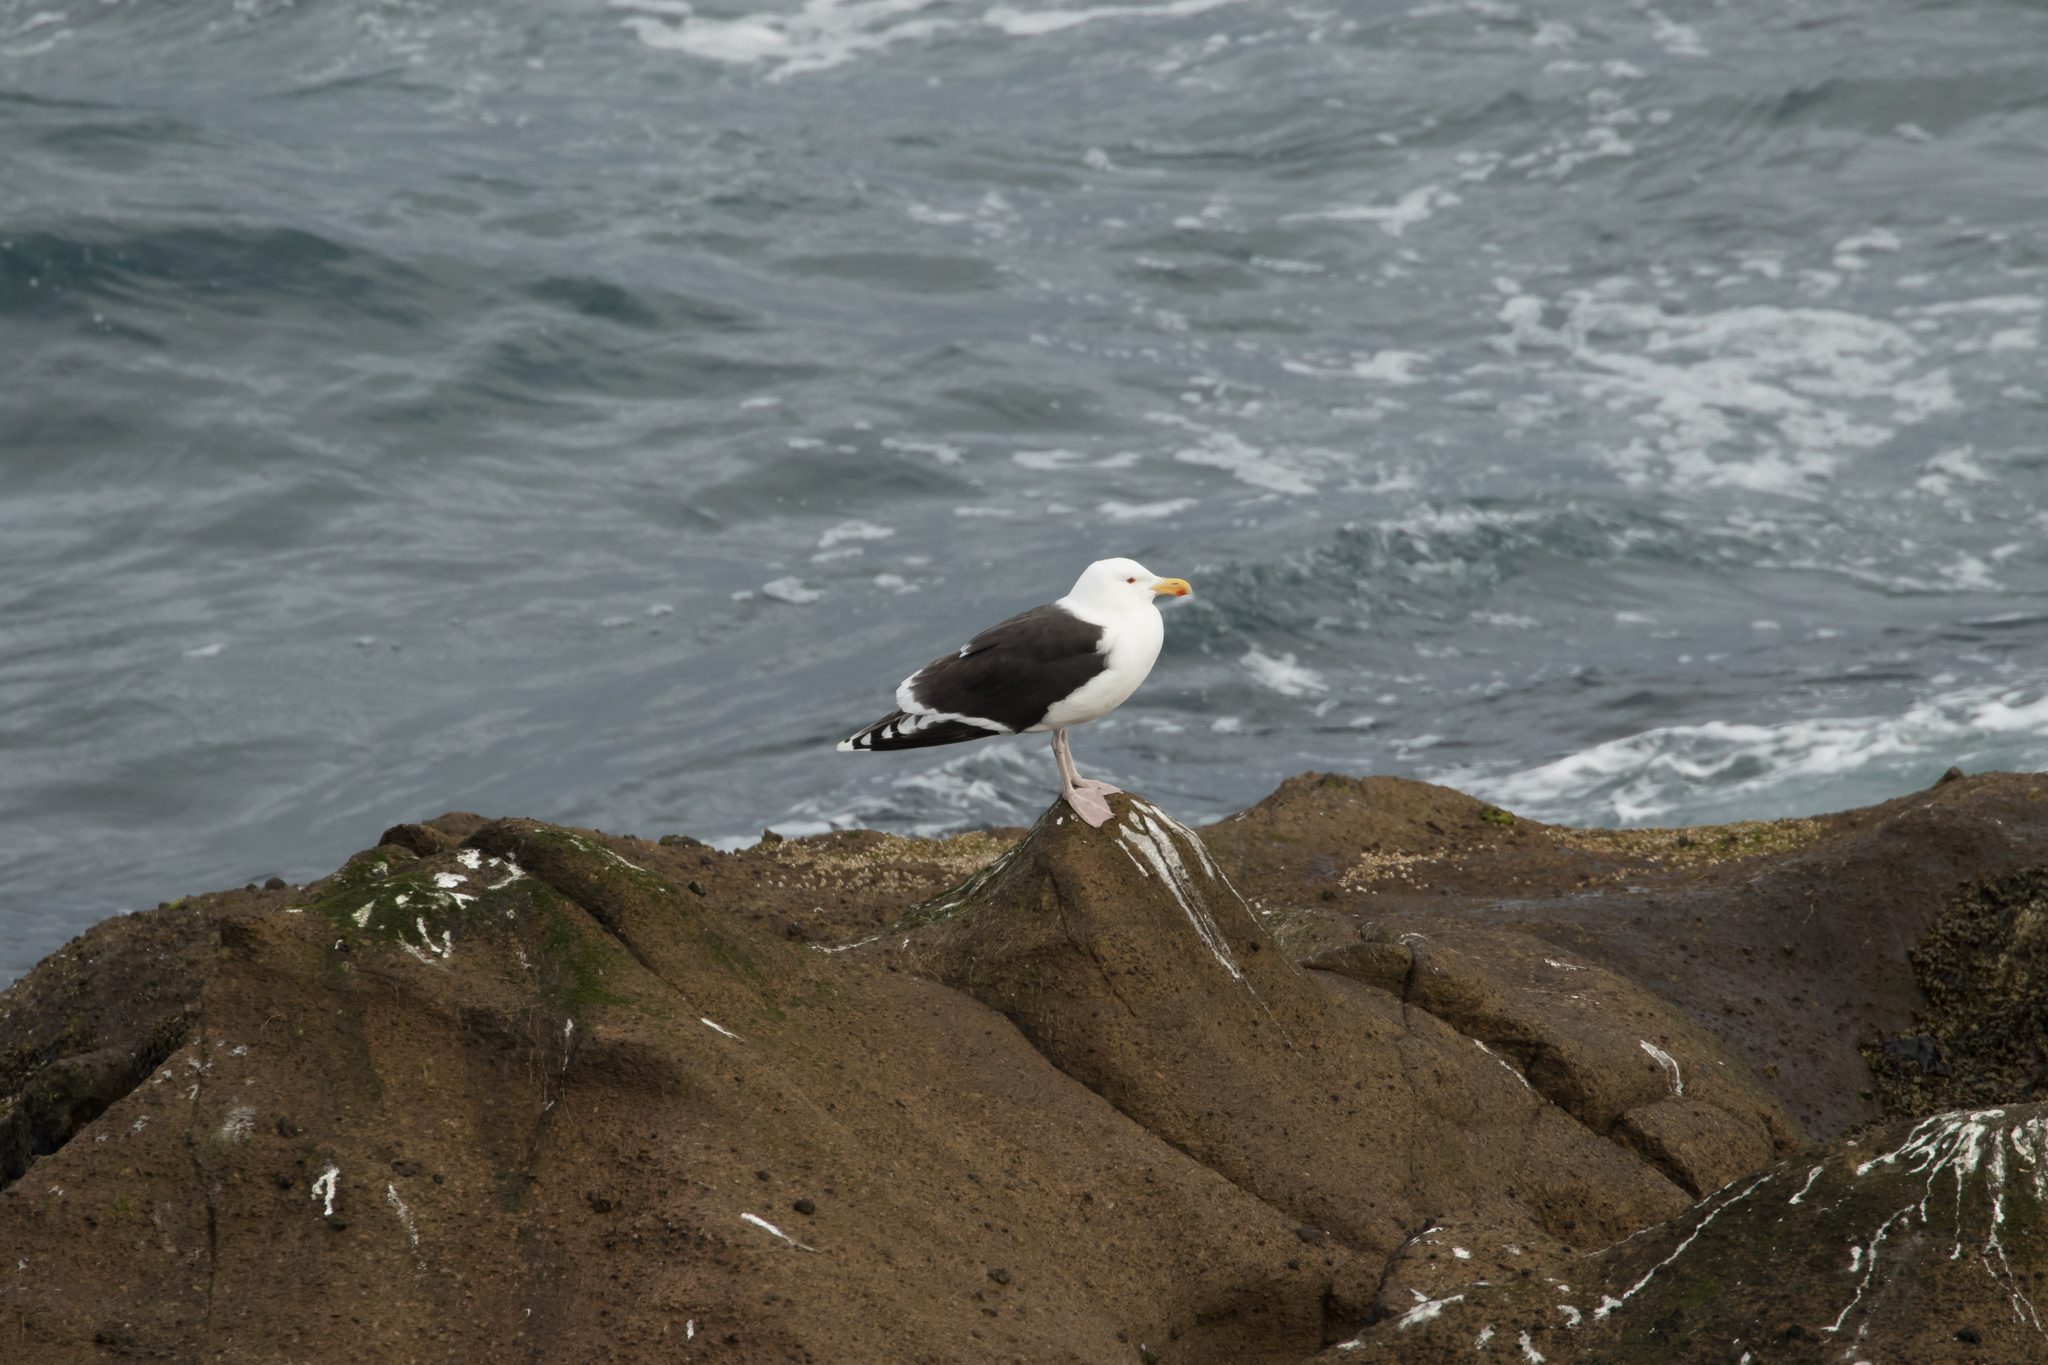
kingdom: Animalia
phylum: Chordata
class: Aves
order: Charadriiformes
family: Laridae
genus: Larus
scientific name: Larus marinus
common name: Great black-backed gull
